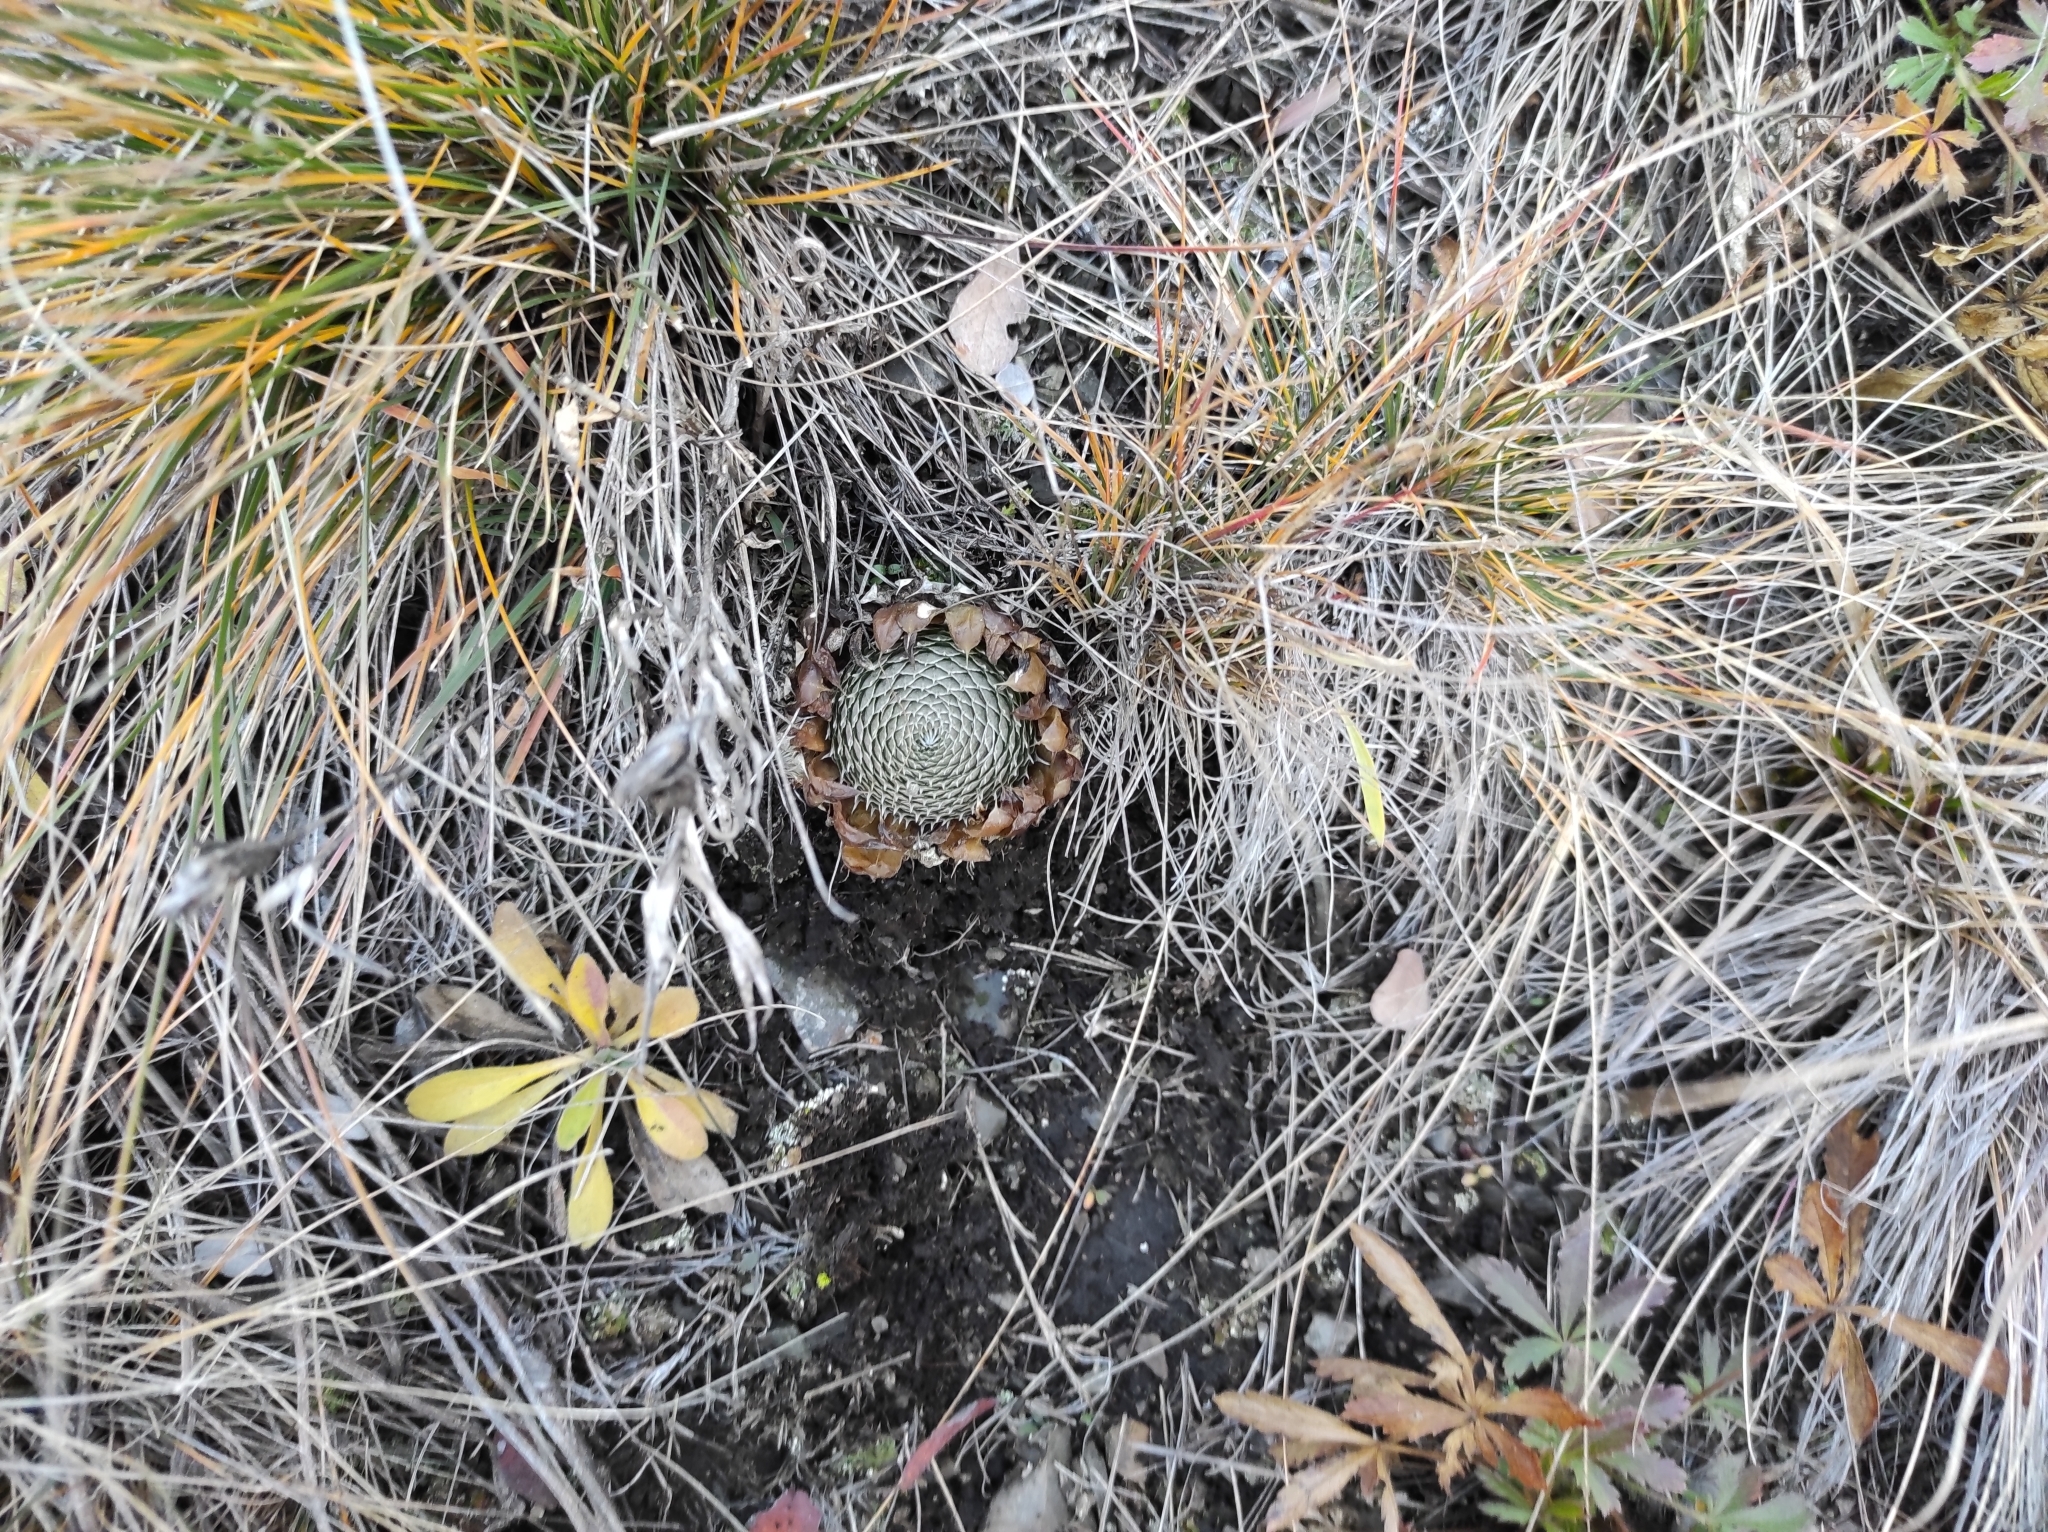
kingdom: Plantae
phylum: Tracheophyta
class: Magnoliopsida
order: Saxifragales
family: Crassulaceae
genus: Orostachys
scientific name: Orostachys spinosa
